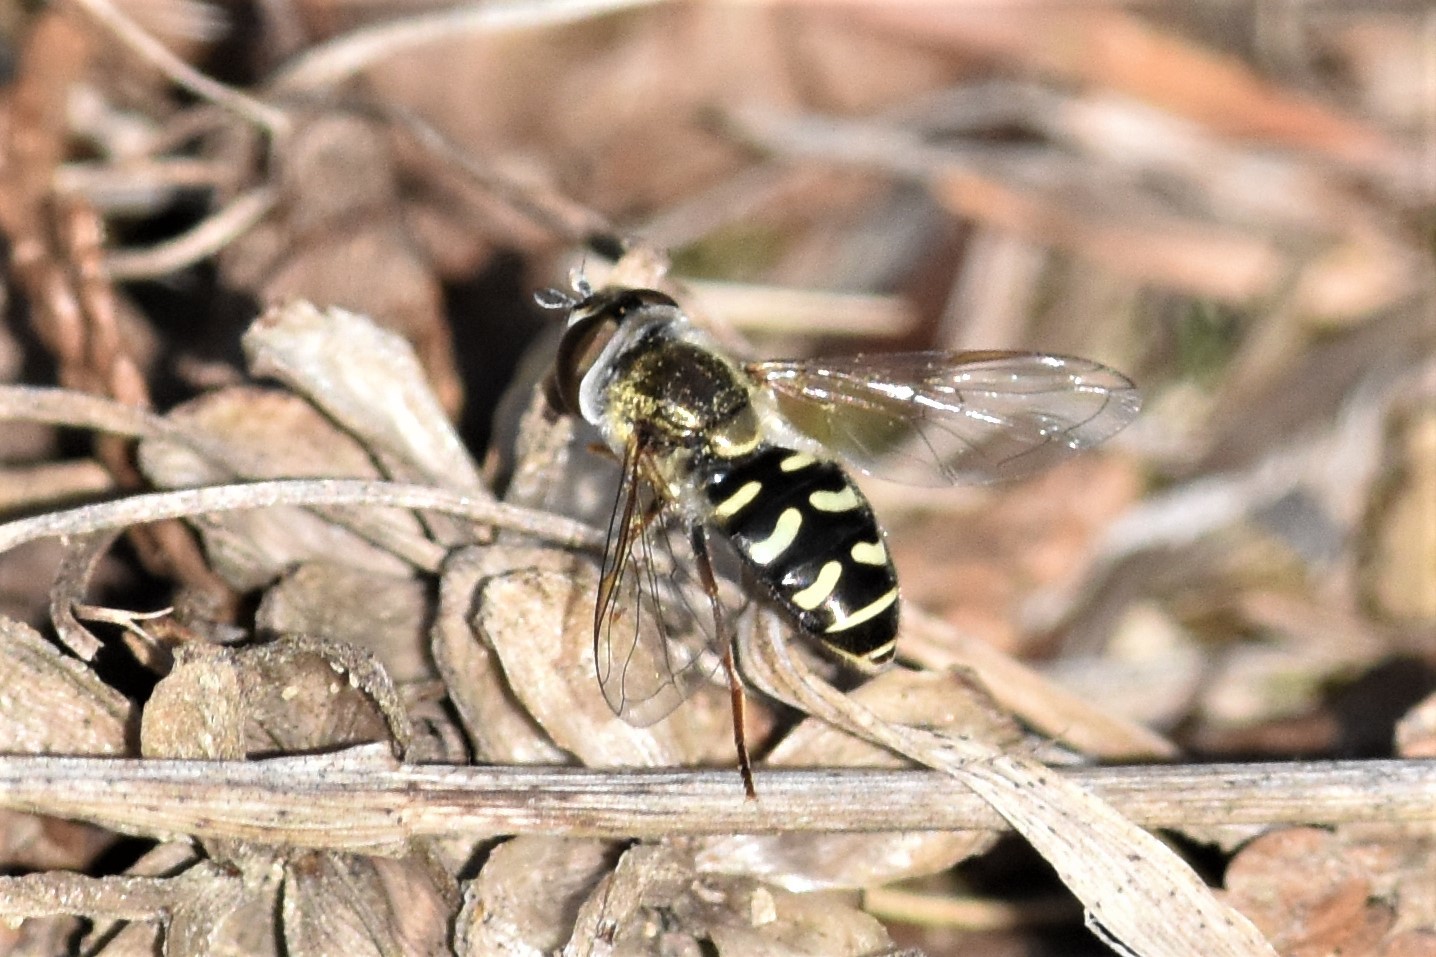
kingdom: Animalia
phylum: Arthropoda
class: Insecta
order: Diptera
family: Syrphidae
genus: Eupeodes
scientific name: Eupeodes volucris
